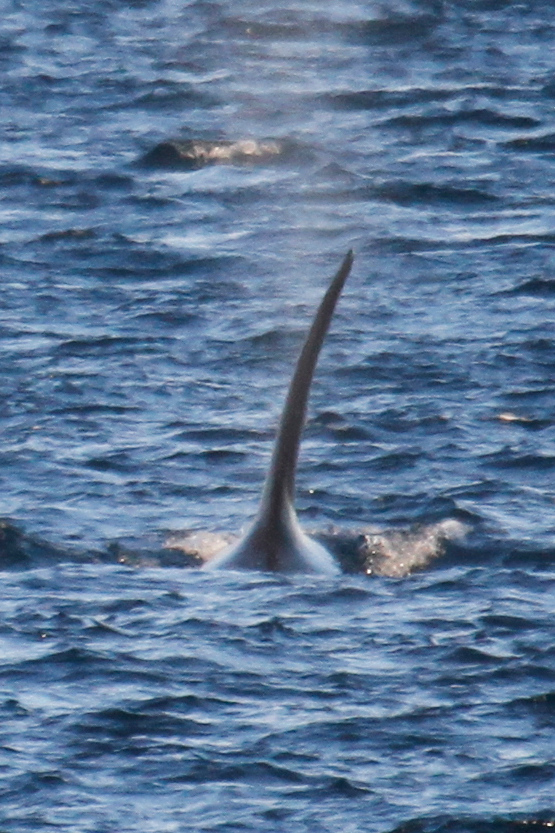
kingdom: Animalia
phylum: Chordata
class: Mammalia
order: Cetacea
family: Delphinidae
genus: Orcinus
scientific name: Orcinus orca
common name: Killer whale
